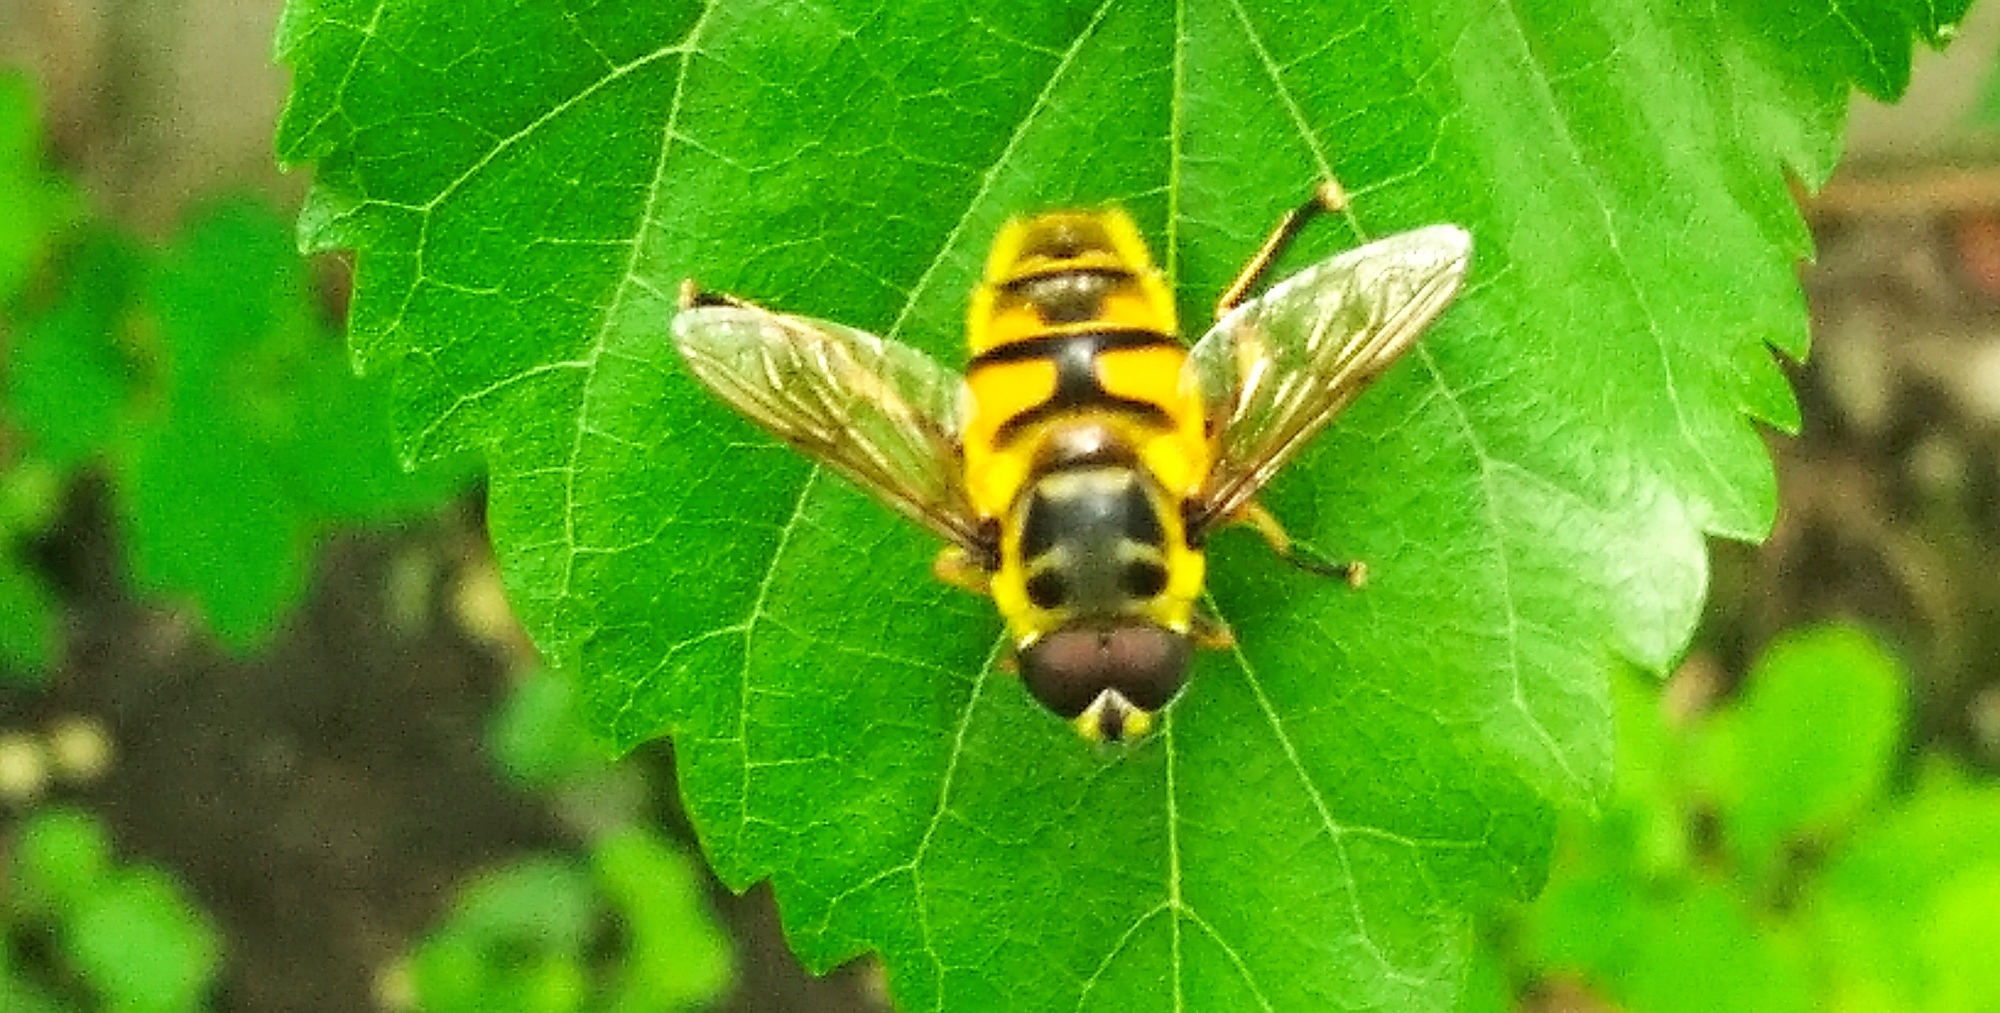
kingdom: Animalia
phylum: Arthropoda
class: Insecta
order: Diptera
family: Syrphidae
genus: Myathropa
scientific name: Myathropa florea
